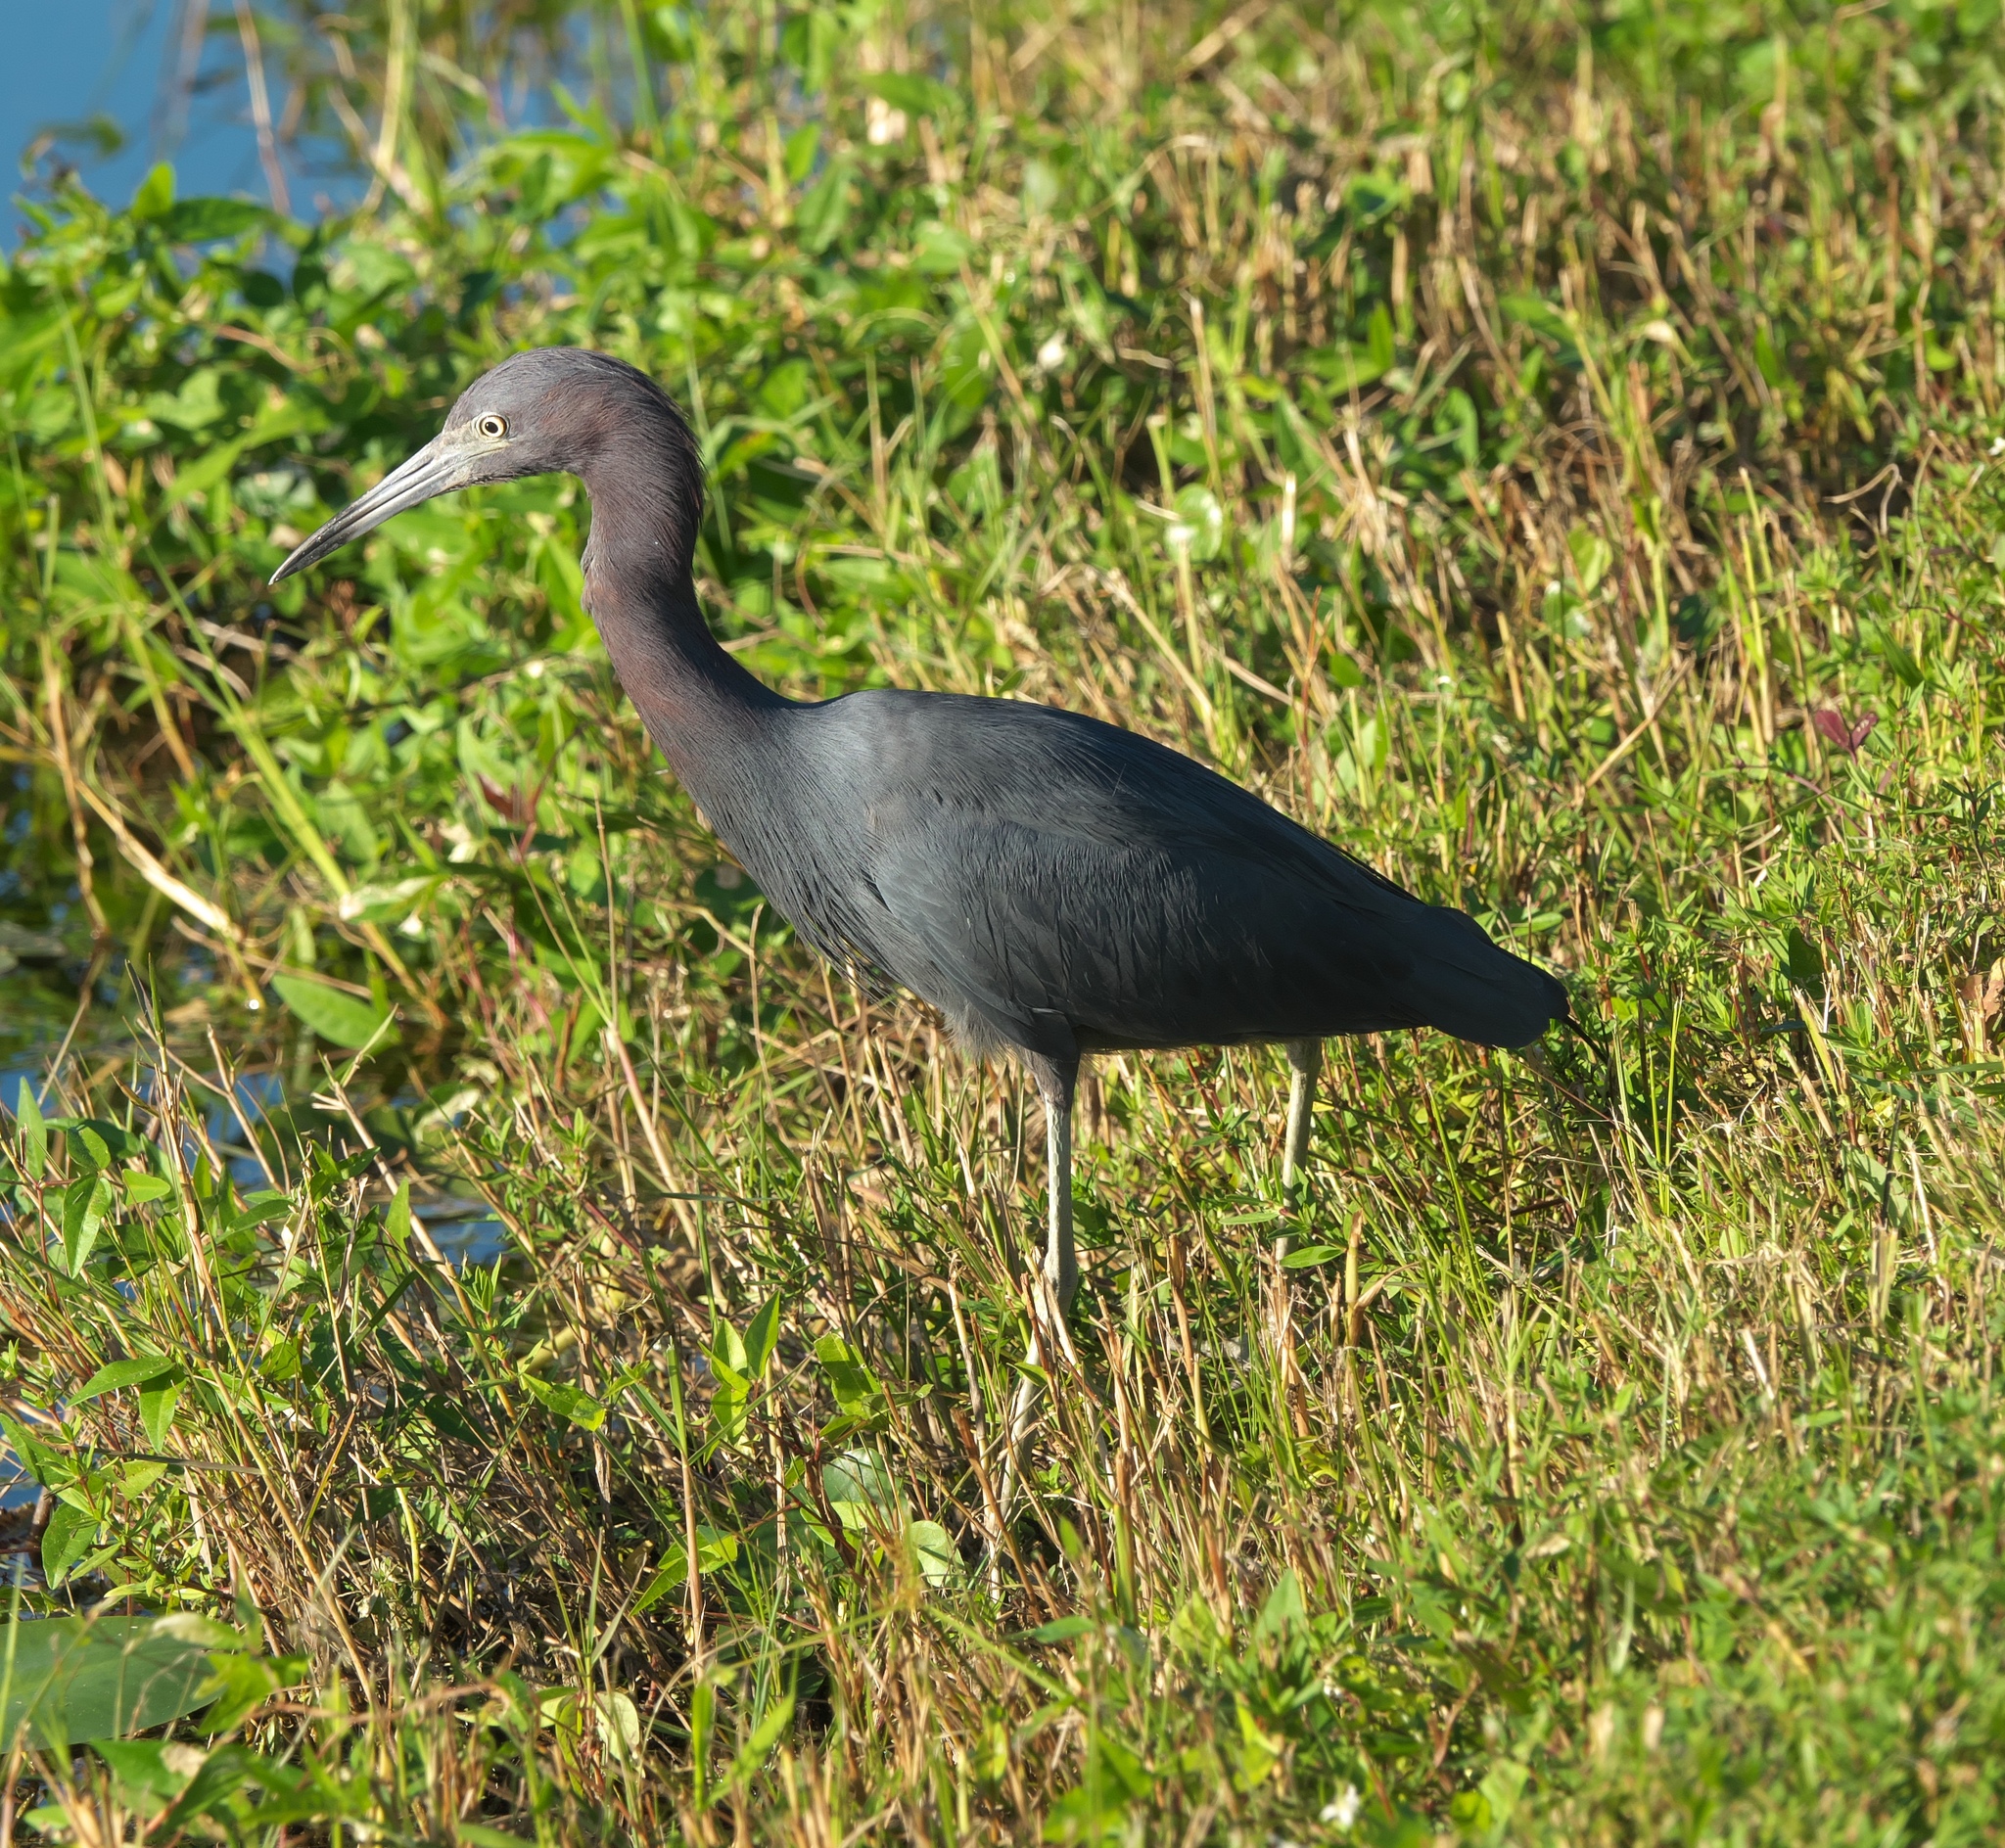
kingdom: Animalia
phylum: Chordata
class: Aves
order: Pelecaniformes
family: Ardeidae
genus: Egretta
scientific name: Egretta caerulea
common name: Little blue heron
